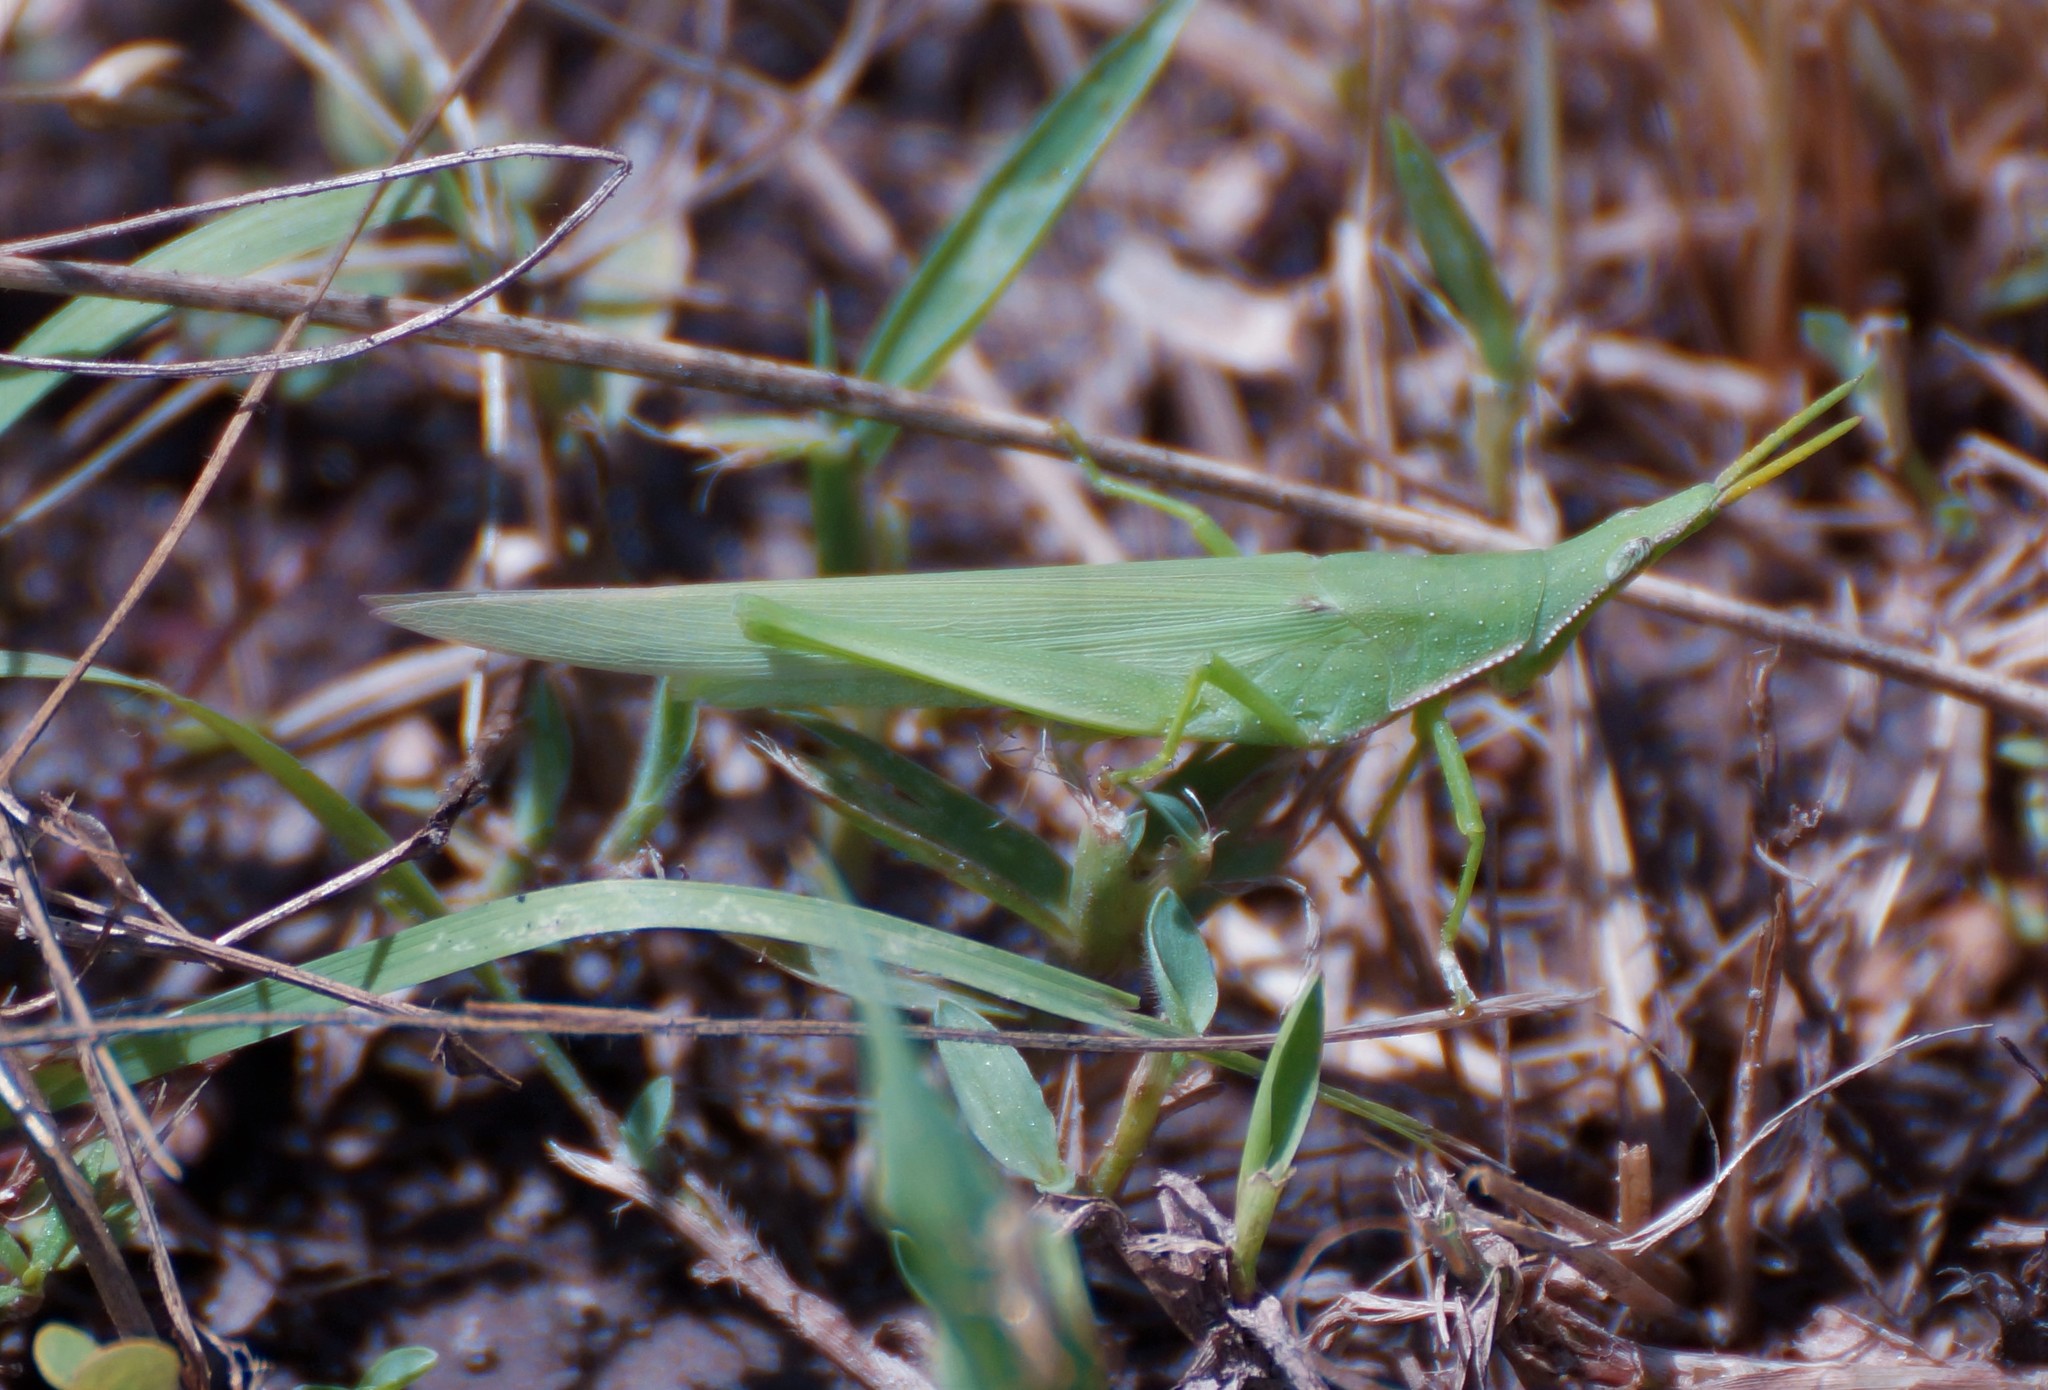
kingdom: Animalia
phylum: Arthropoda
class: Insecta
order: Orthoptera
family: Pyrgomorphidae
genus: Atractomorpha
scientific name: Atractomorpha similis
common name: Northern grass pyrgomorph
